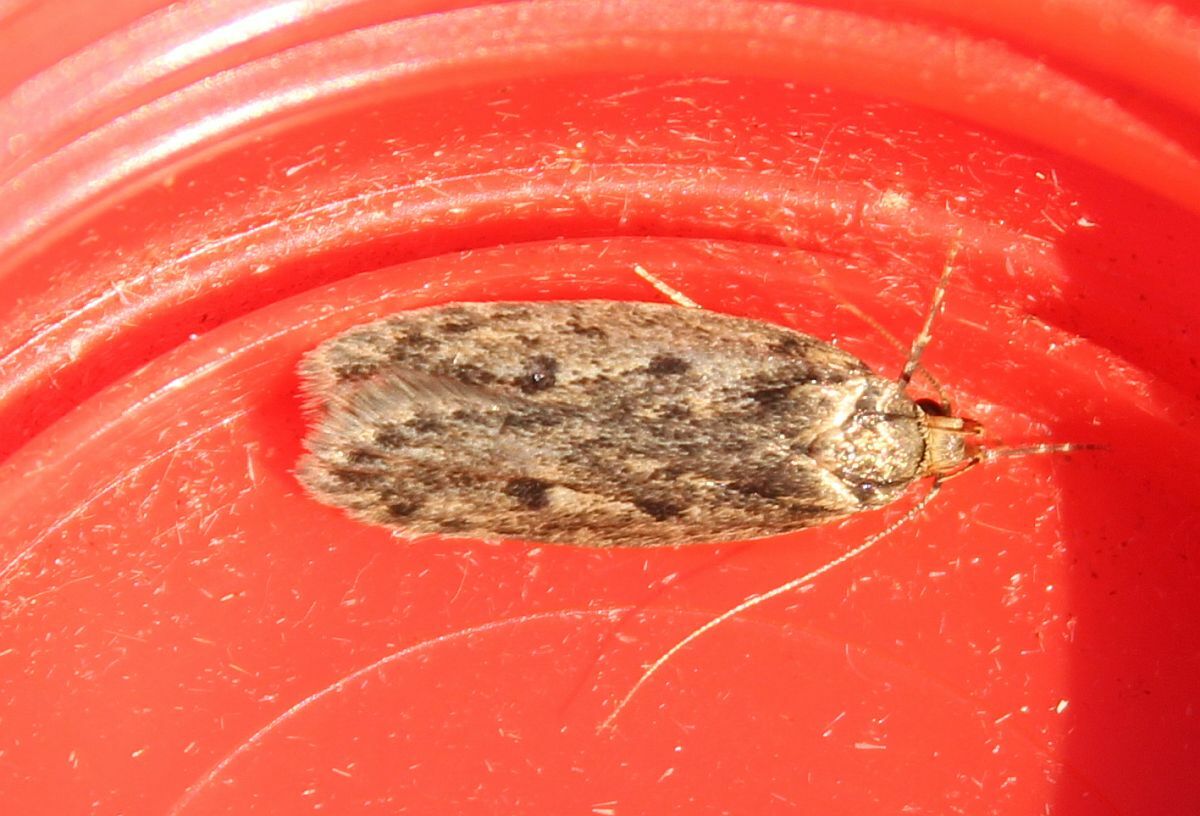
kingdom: Animalia
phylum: Arthropoda
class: Insecta
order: Lepidoptera
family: Oecophoridae
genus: Hofmannophila
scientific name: Hofmannophila pseudospretella
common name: Brown house moth
